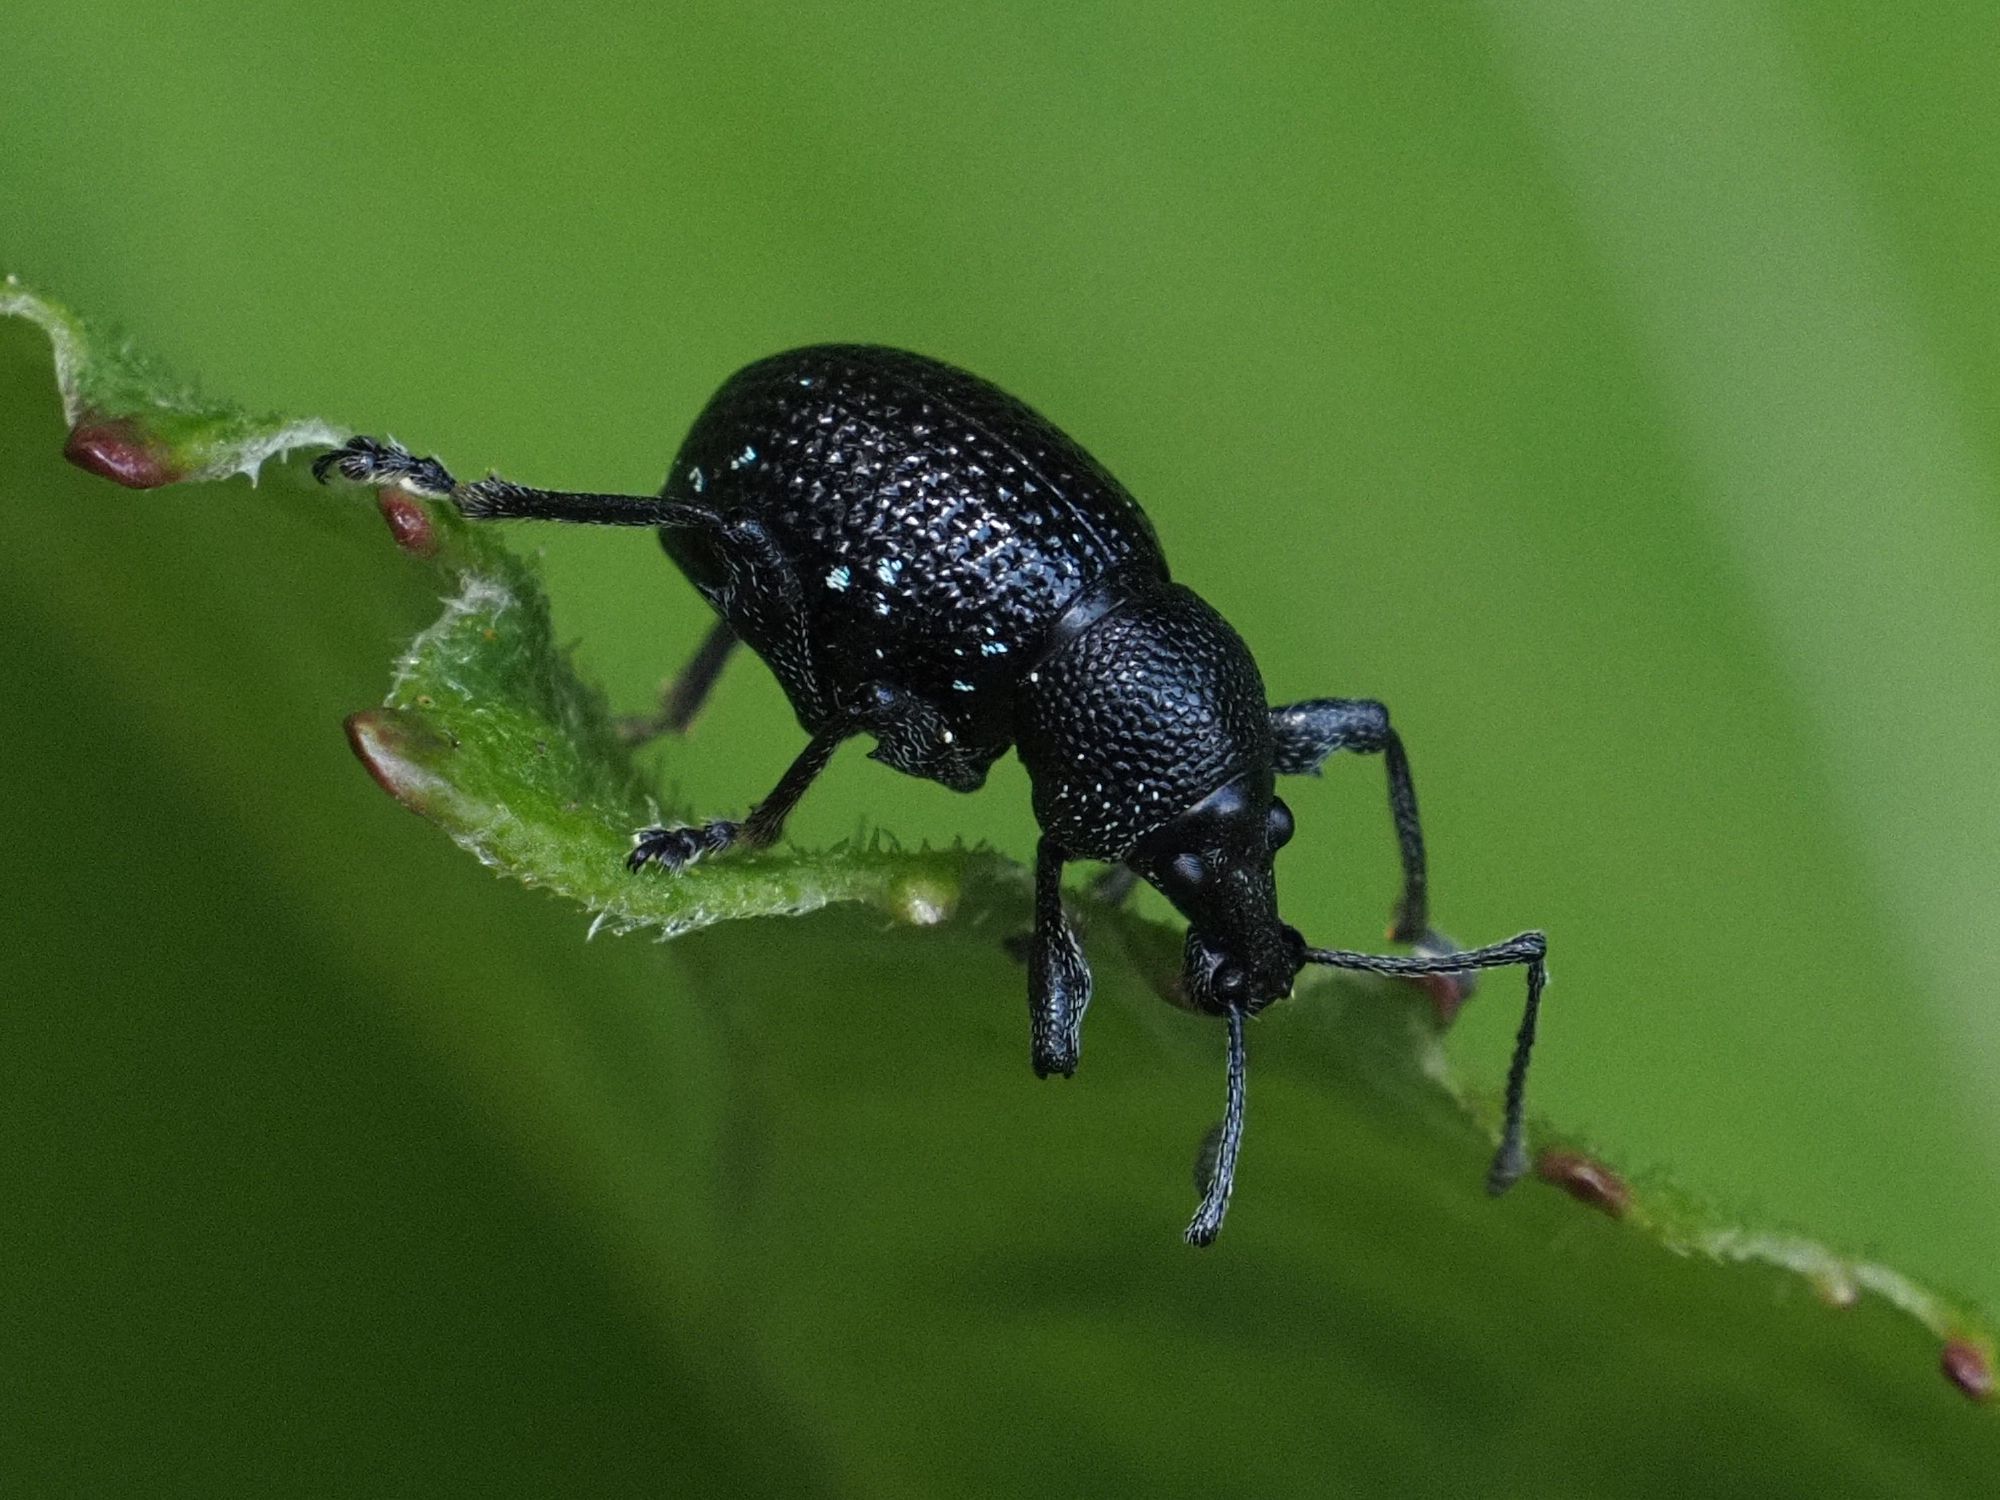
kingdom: Animalia
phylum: Arthropoda
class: Insecta
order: Coleoptera
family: Curculionidae
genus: Otiorhynchus
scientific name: Otiorhynchus gemmatus
